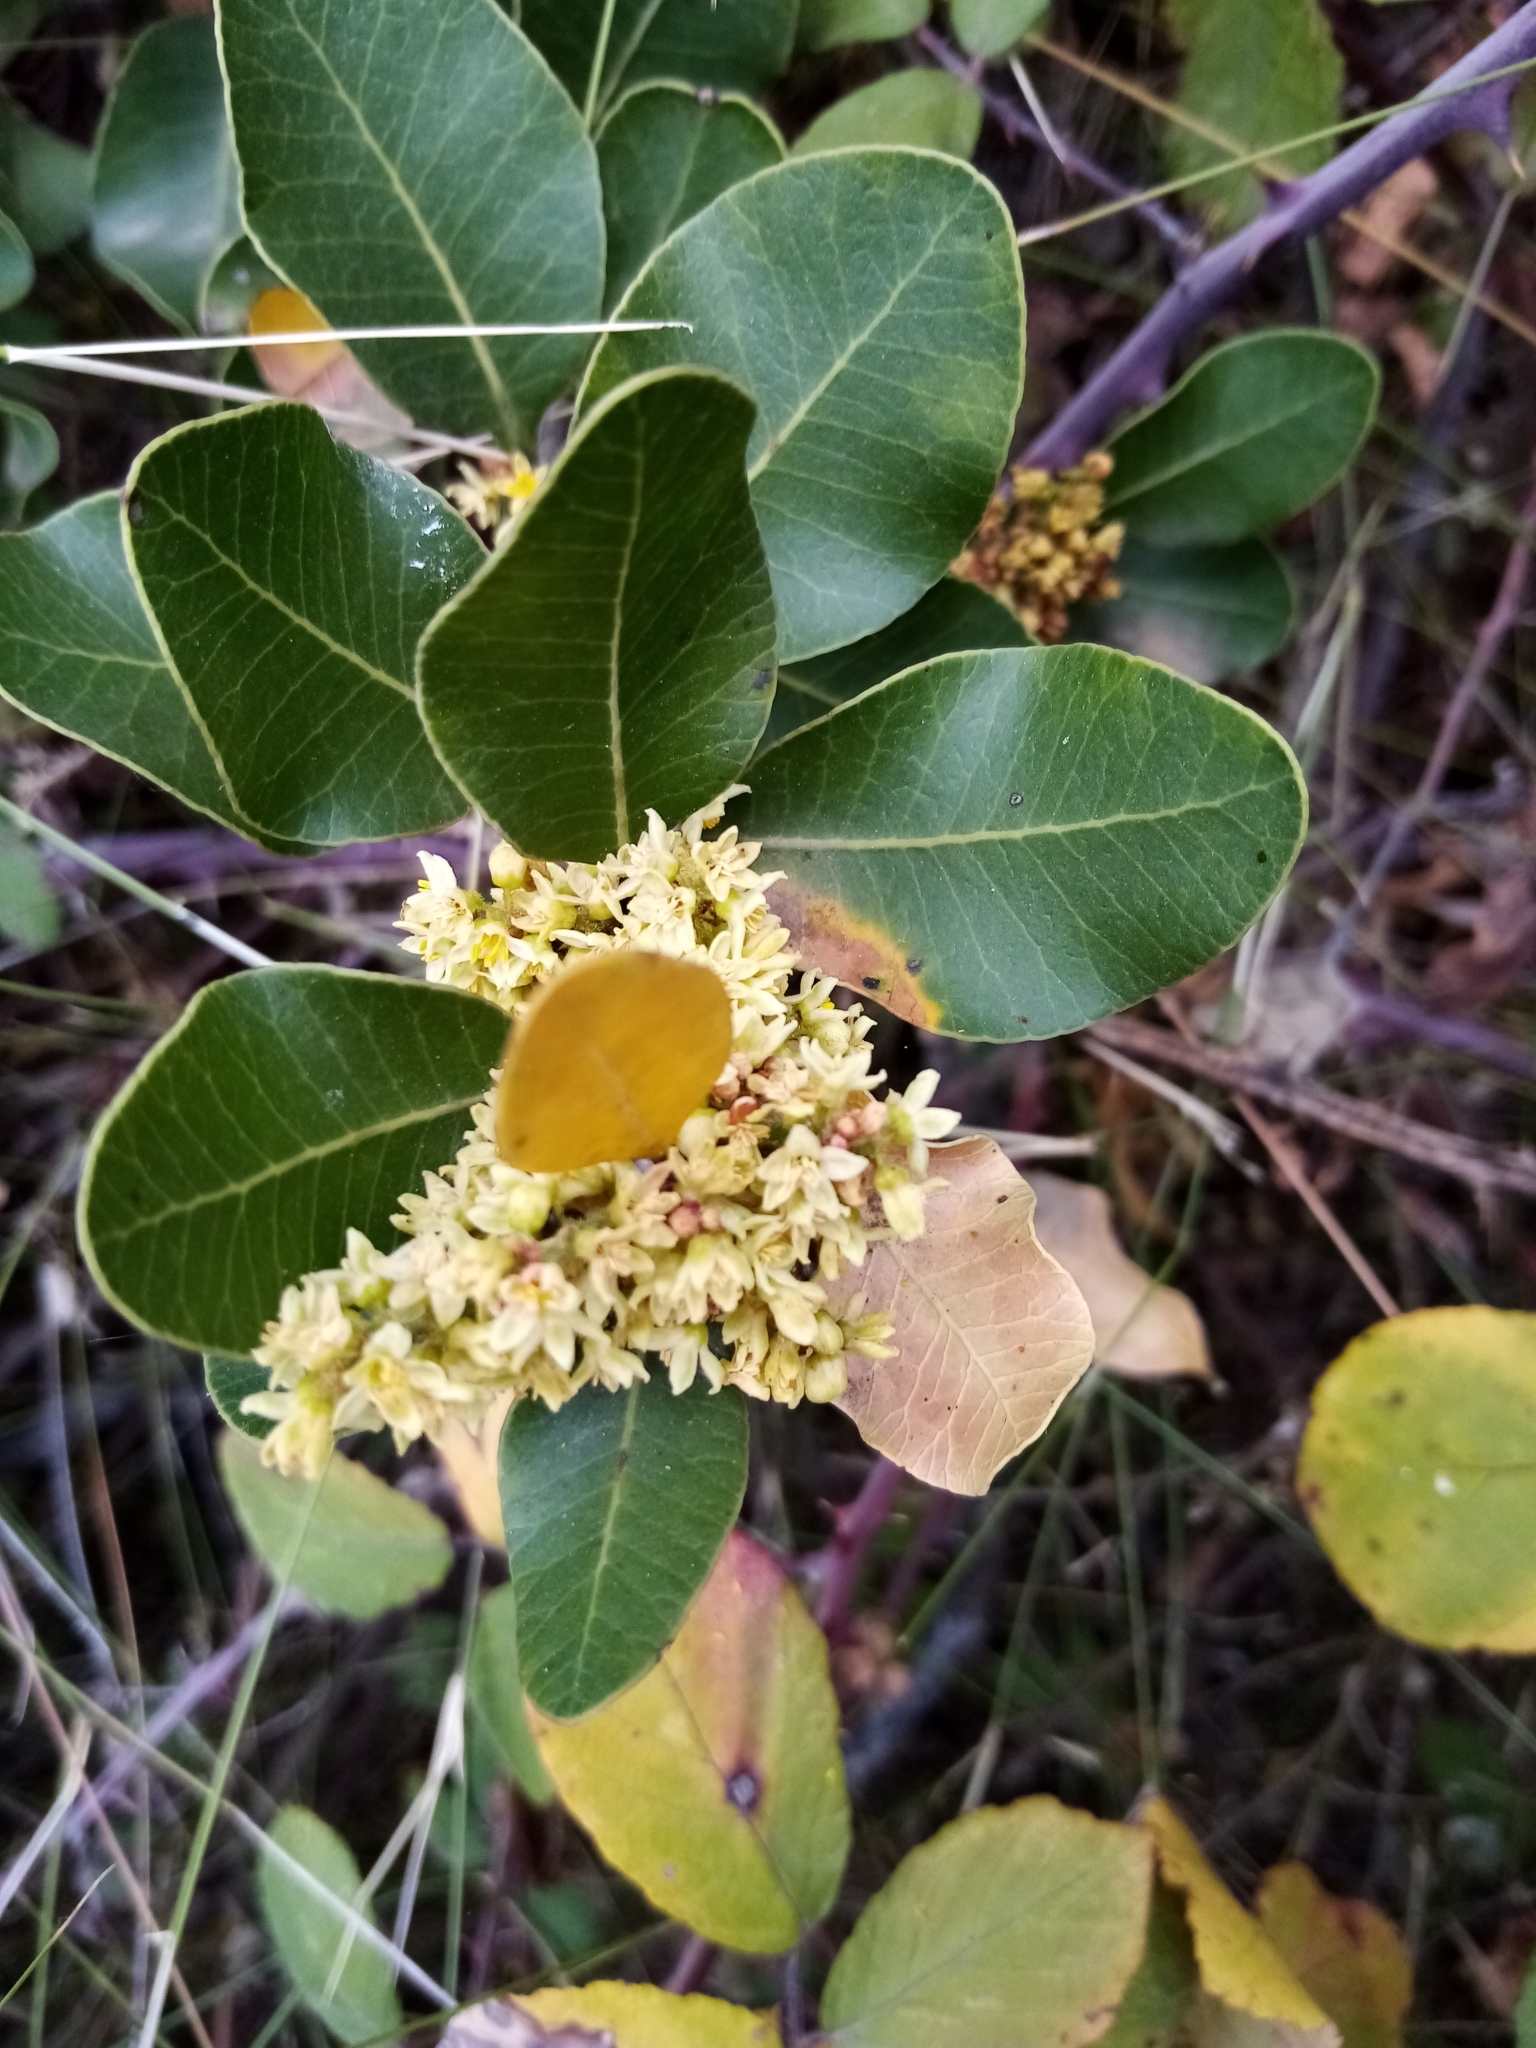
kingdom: Plantae
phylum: Tracheophyta
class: Magnoliopsida
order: Sapindales
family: Anacardiaceae
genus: Lithraea
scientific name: Lithraea caustica
